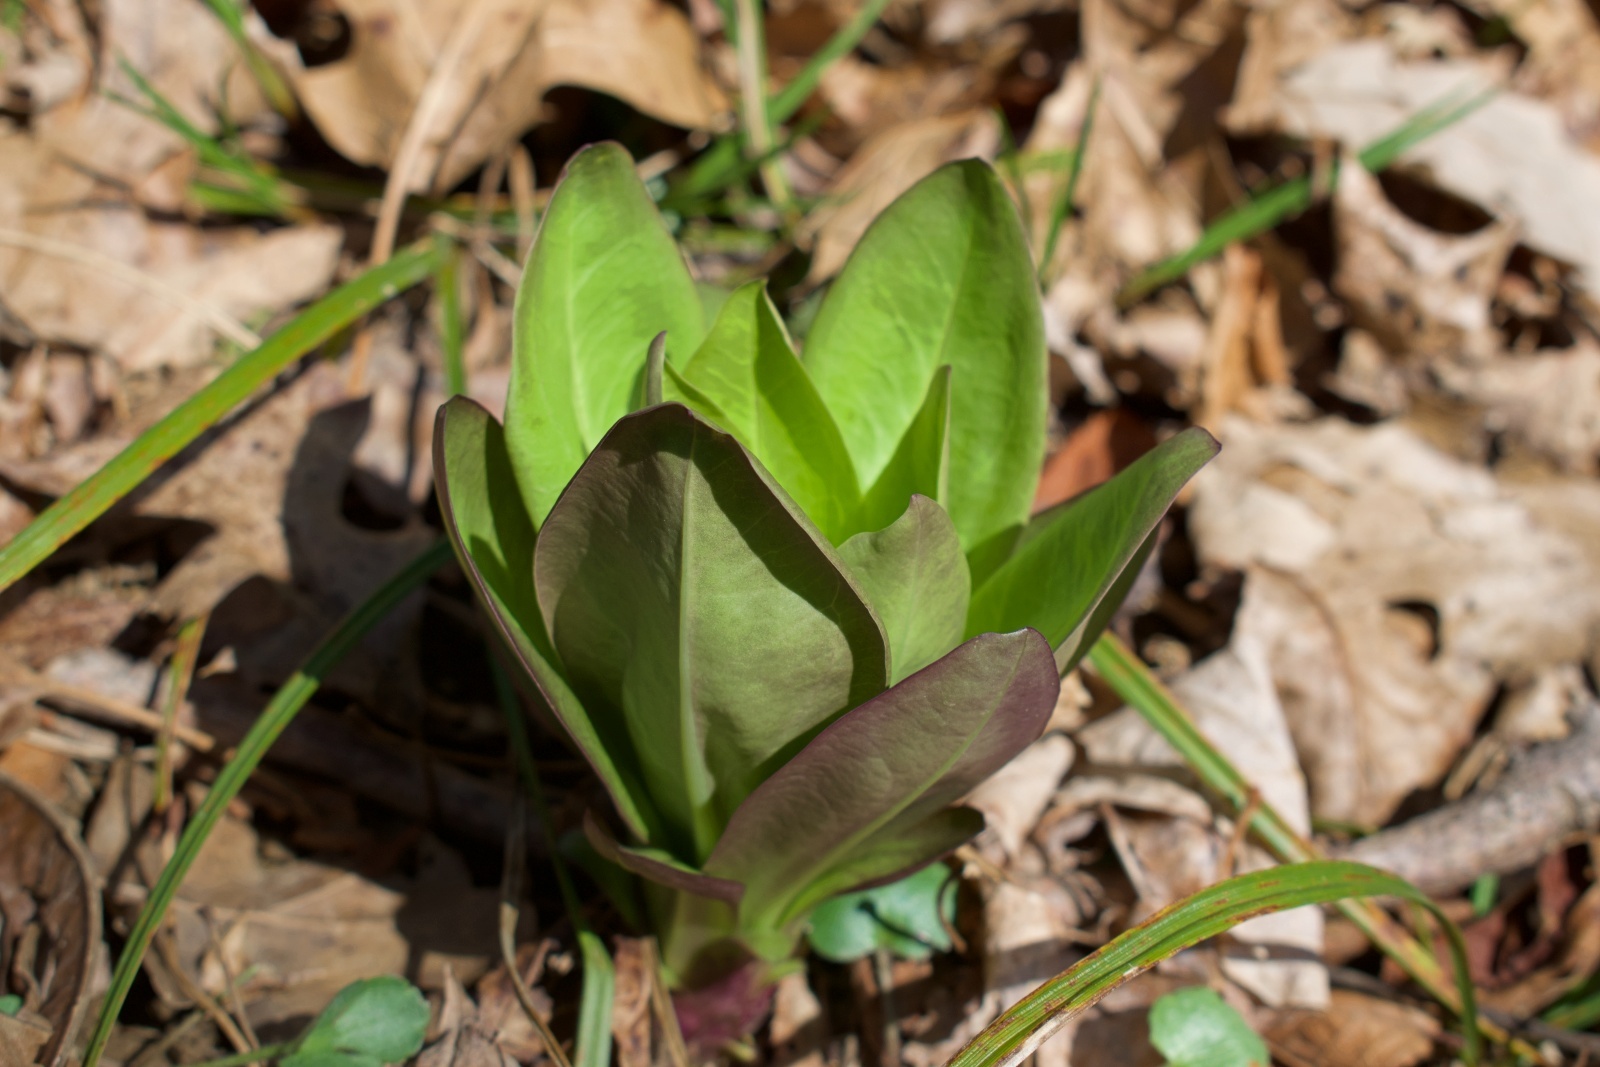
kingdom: Plantae
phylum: Tracheophyta
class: Magnoliopsida
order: Gentianales
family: Gentianaceae
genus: Frasera
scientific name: Frasera caroliniensis
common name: American columbo
